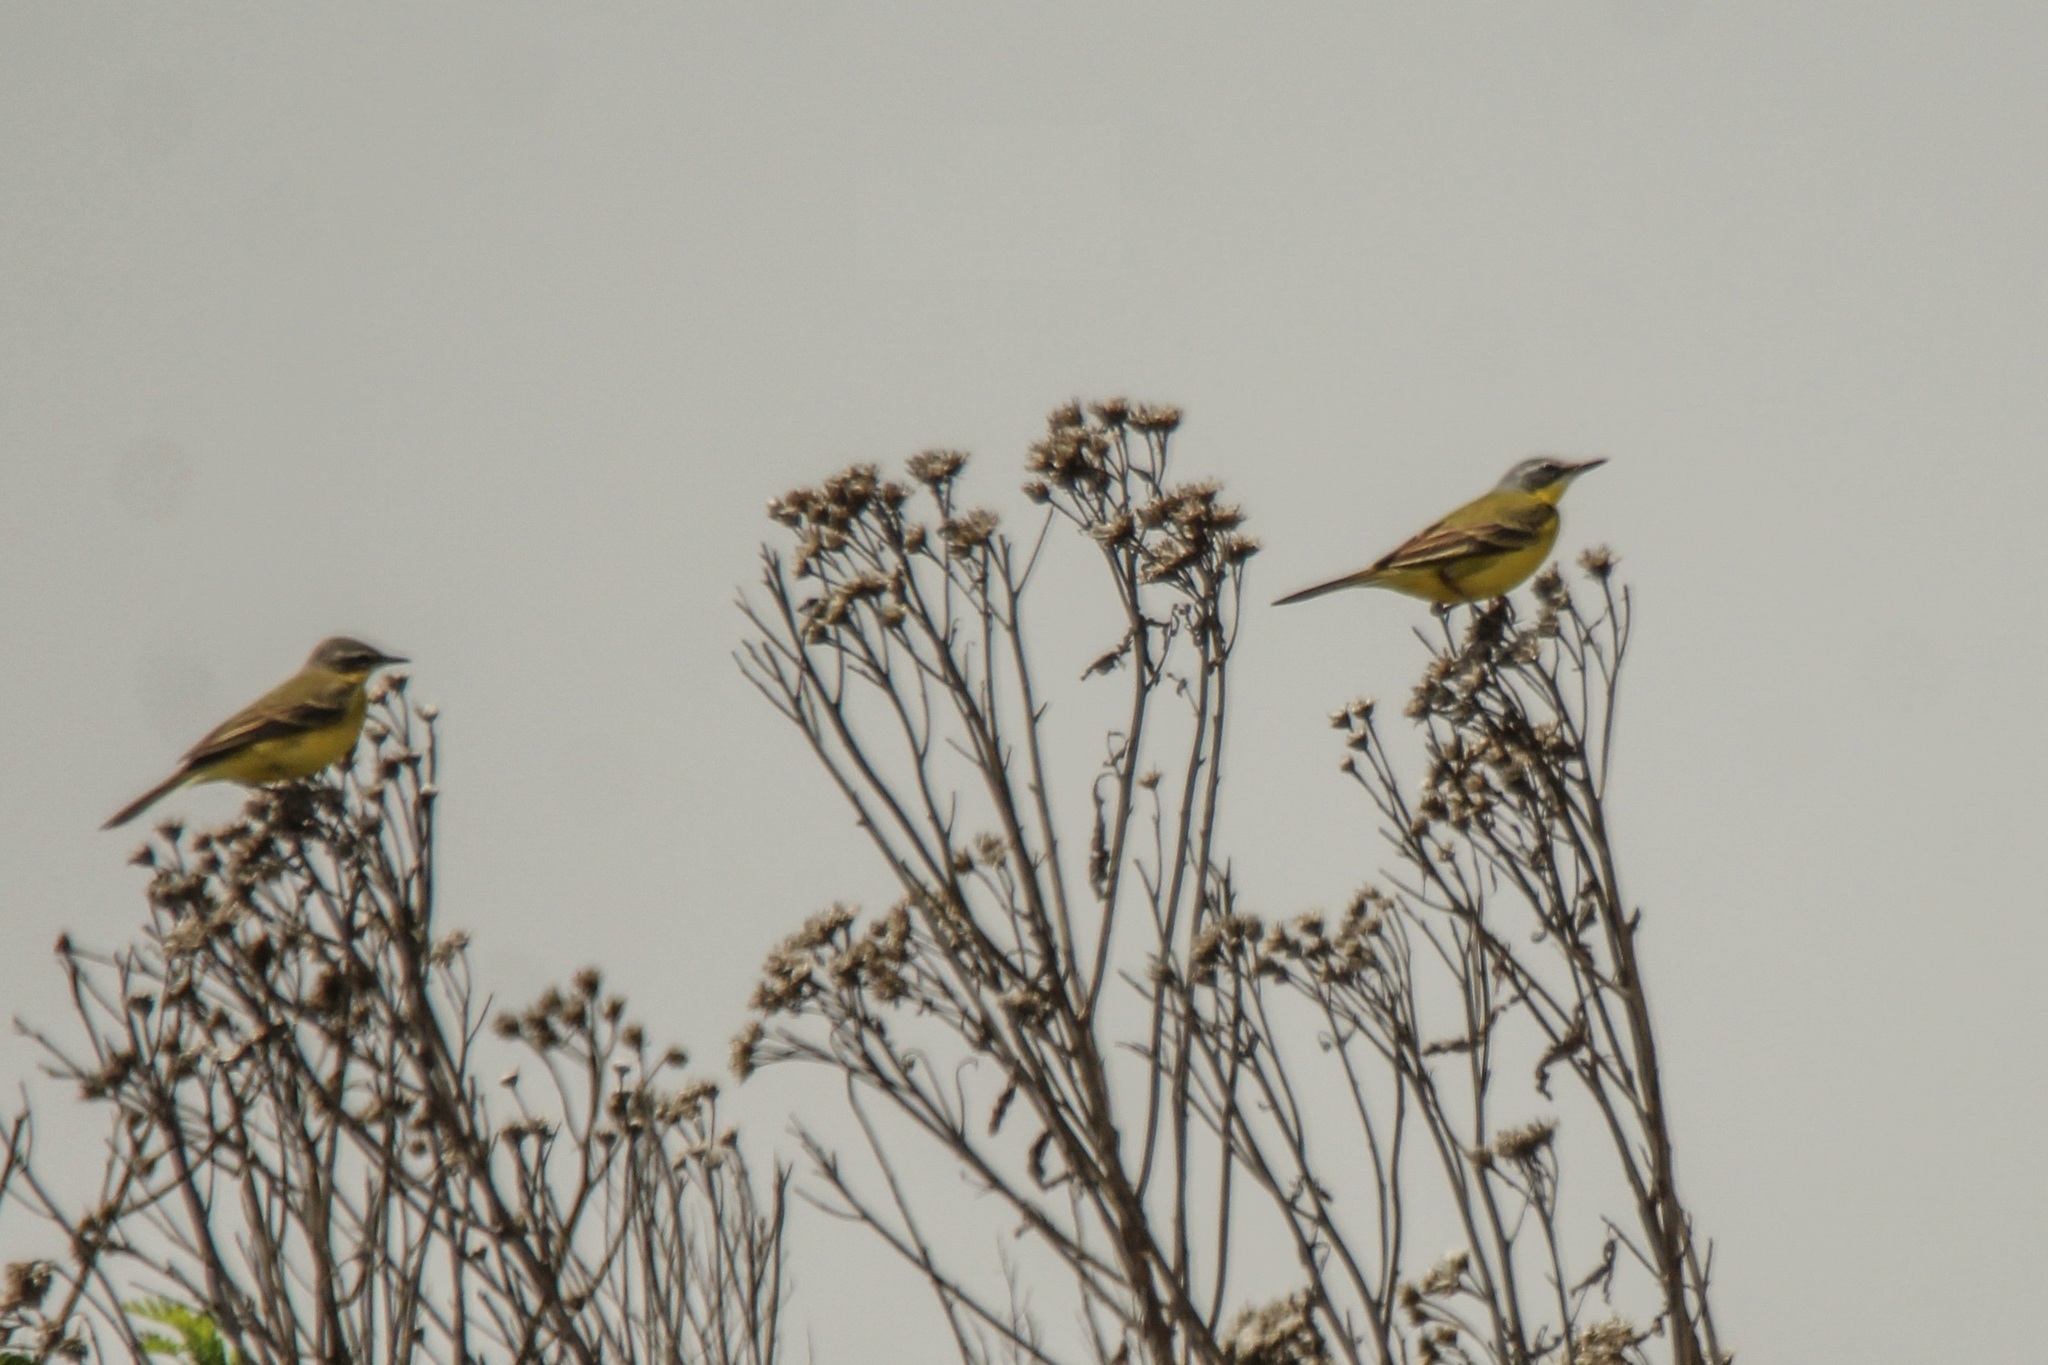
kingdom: Animalia
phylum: Chordata
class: Aves
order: Passeriformes
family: Motacillidae
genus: Motacilla
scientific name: Motacilla tschutschensis
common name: Eastern yellow wagtail
